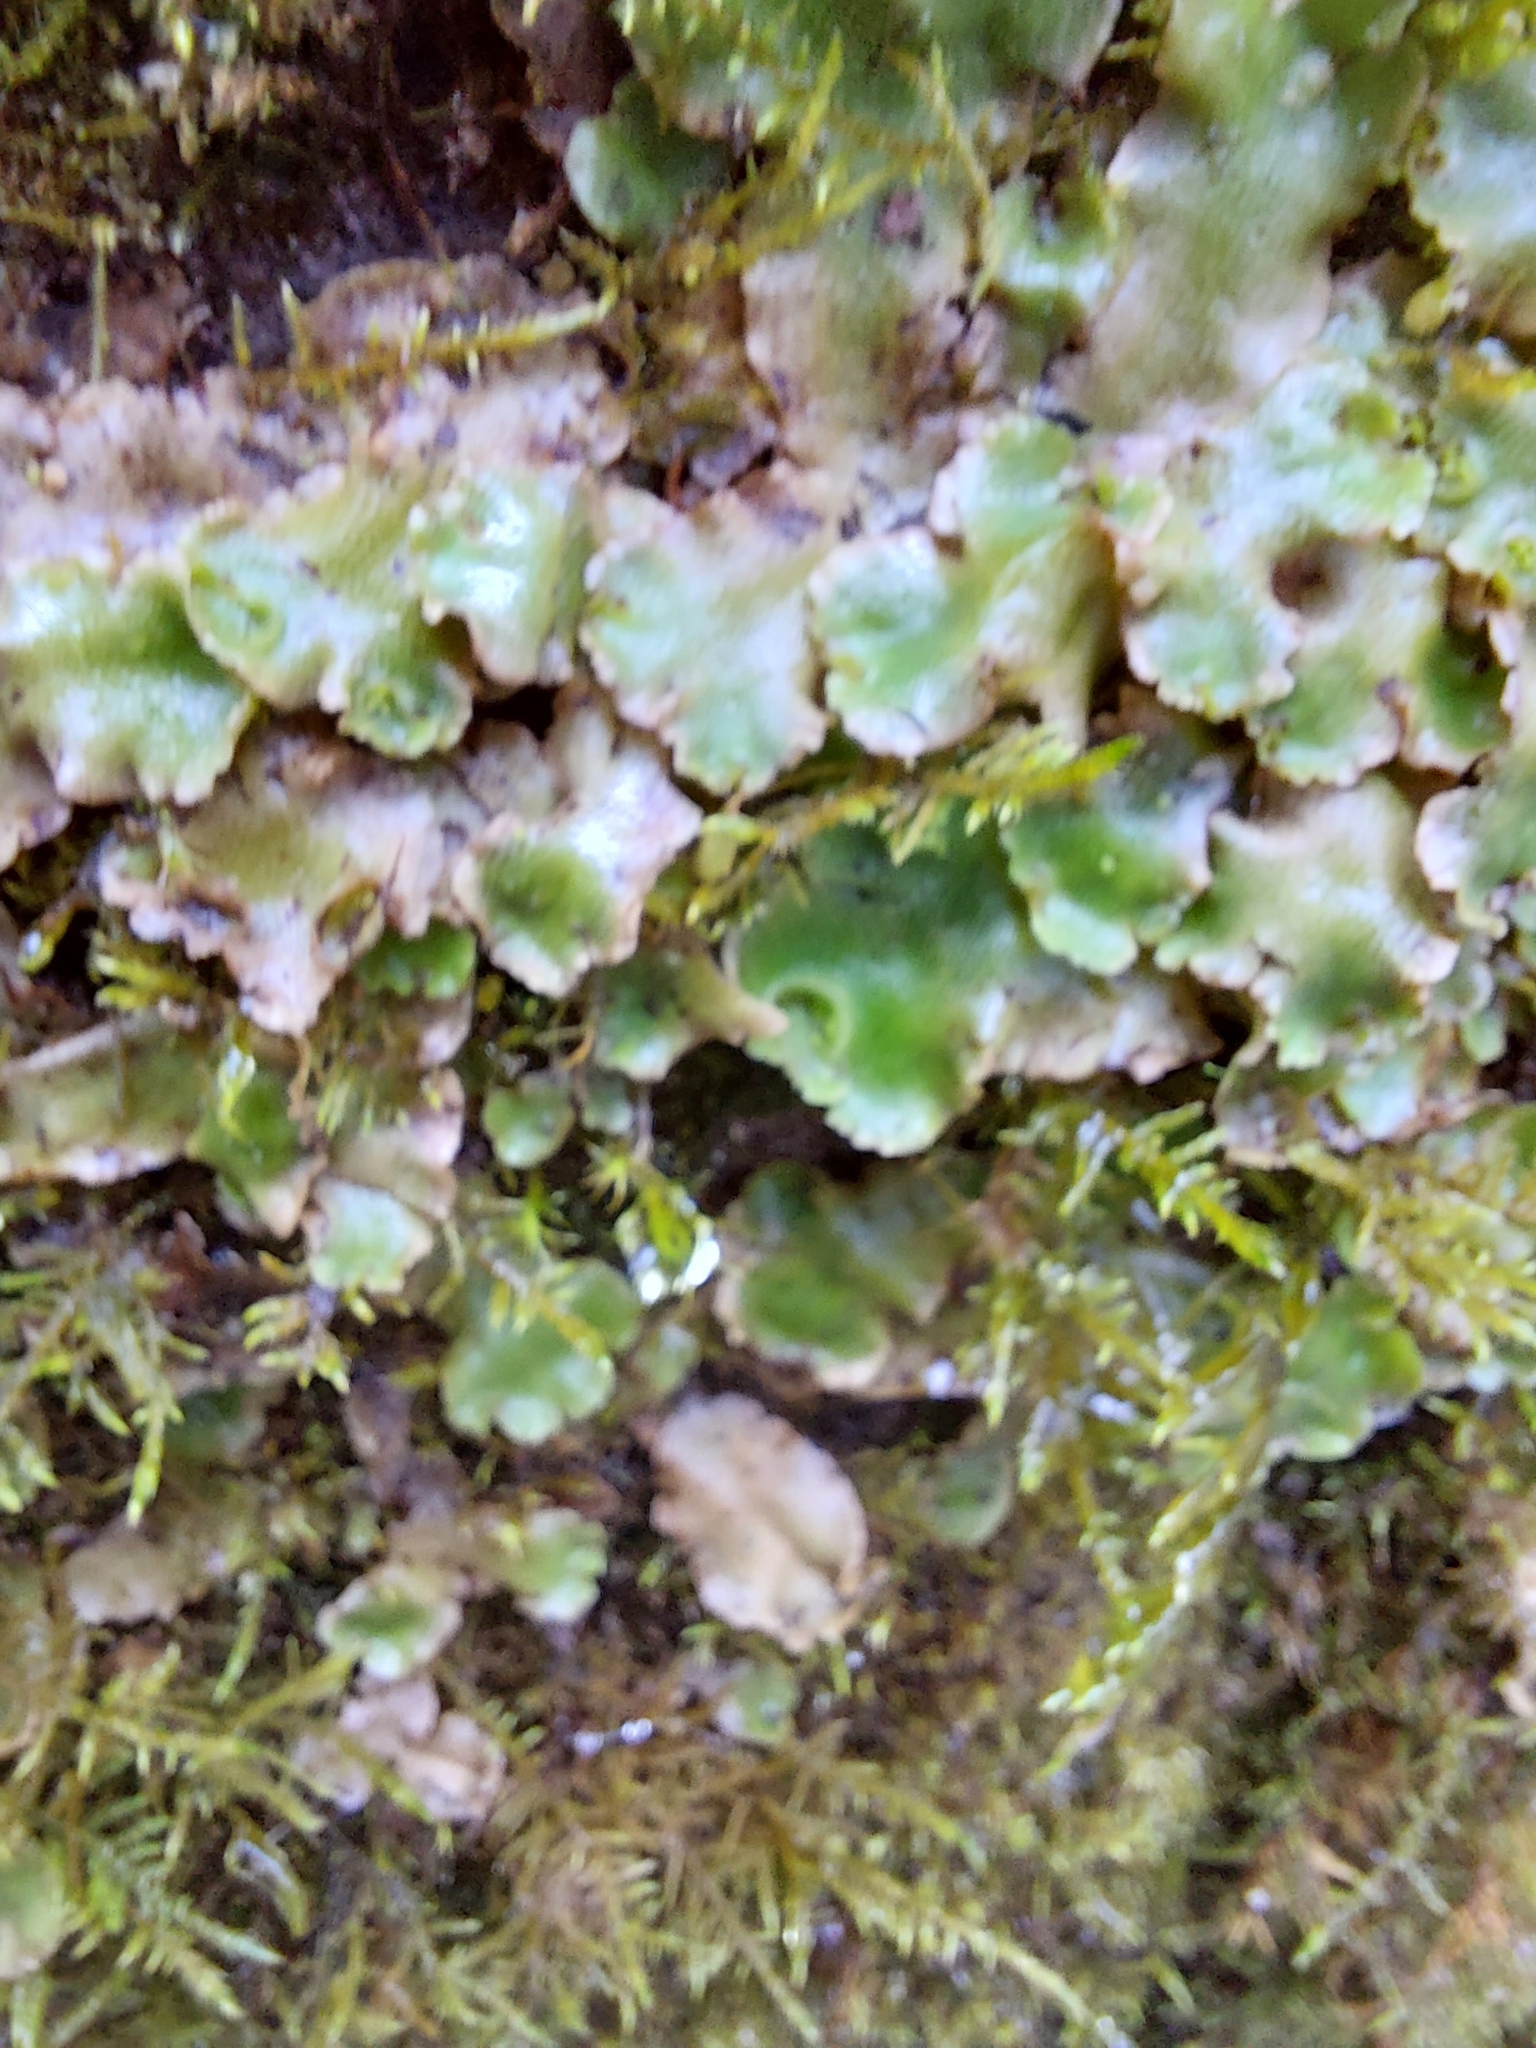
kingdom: Plantae
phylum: Marchantiophyta
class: Marchantiopsida
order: Lunulariales
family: Lunulariaceae
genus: Lunularia
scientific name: Lunularia cruciata
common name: Crescent-cup liverwort
